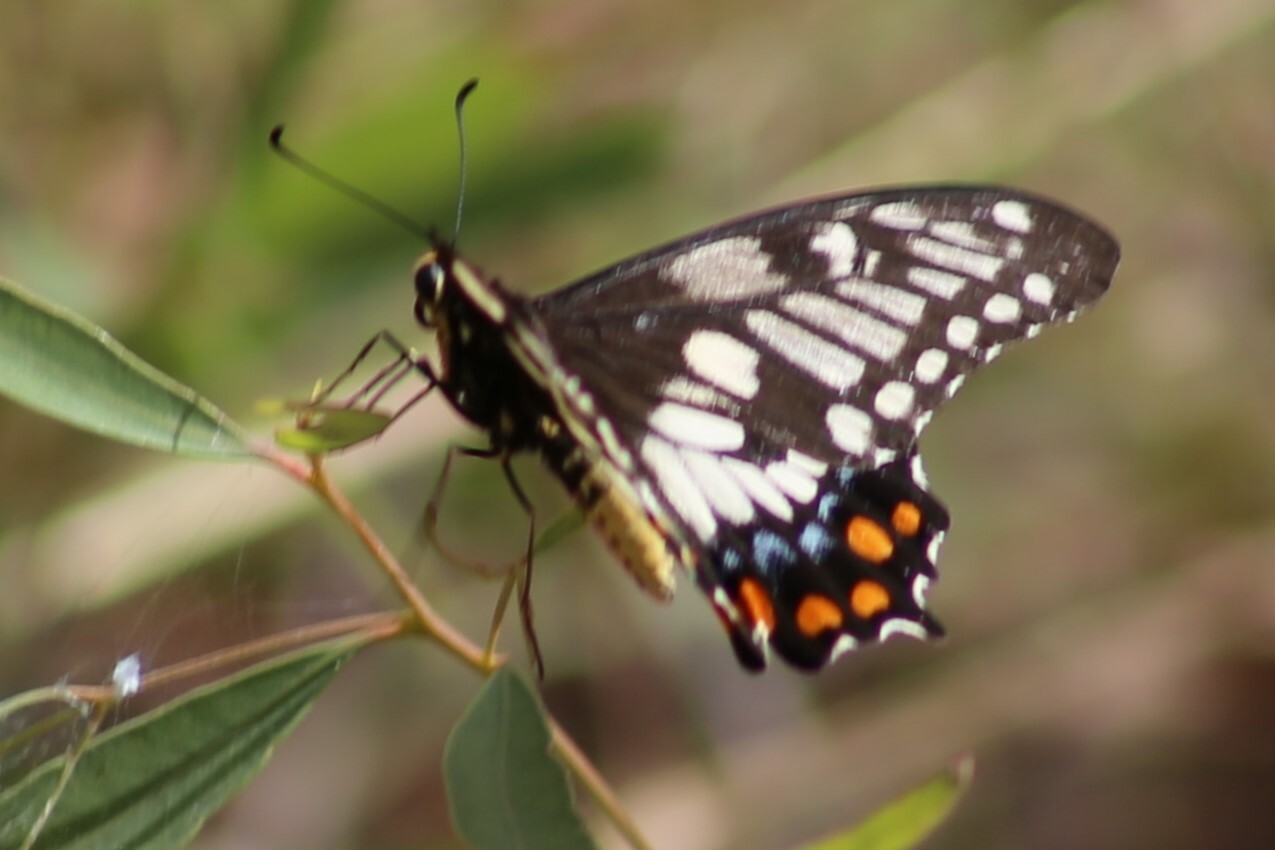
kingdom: Animalia
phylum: Arthropoda
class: Insecta
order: Lepidoptera
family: Papilionidae
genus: Papilio
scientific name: Papilio anactus
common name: Dingy swallowtail
